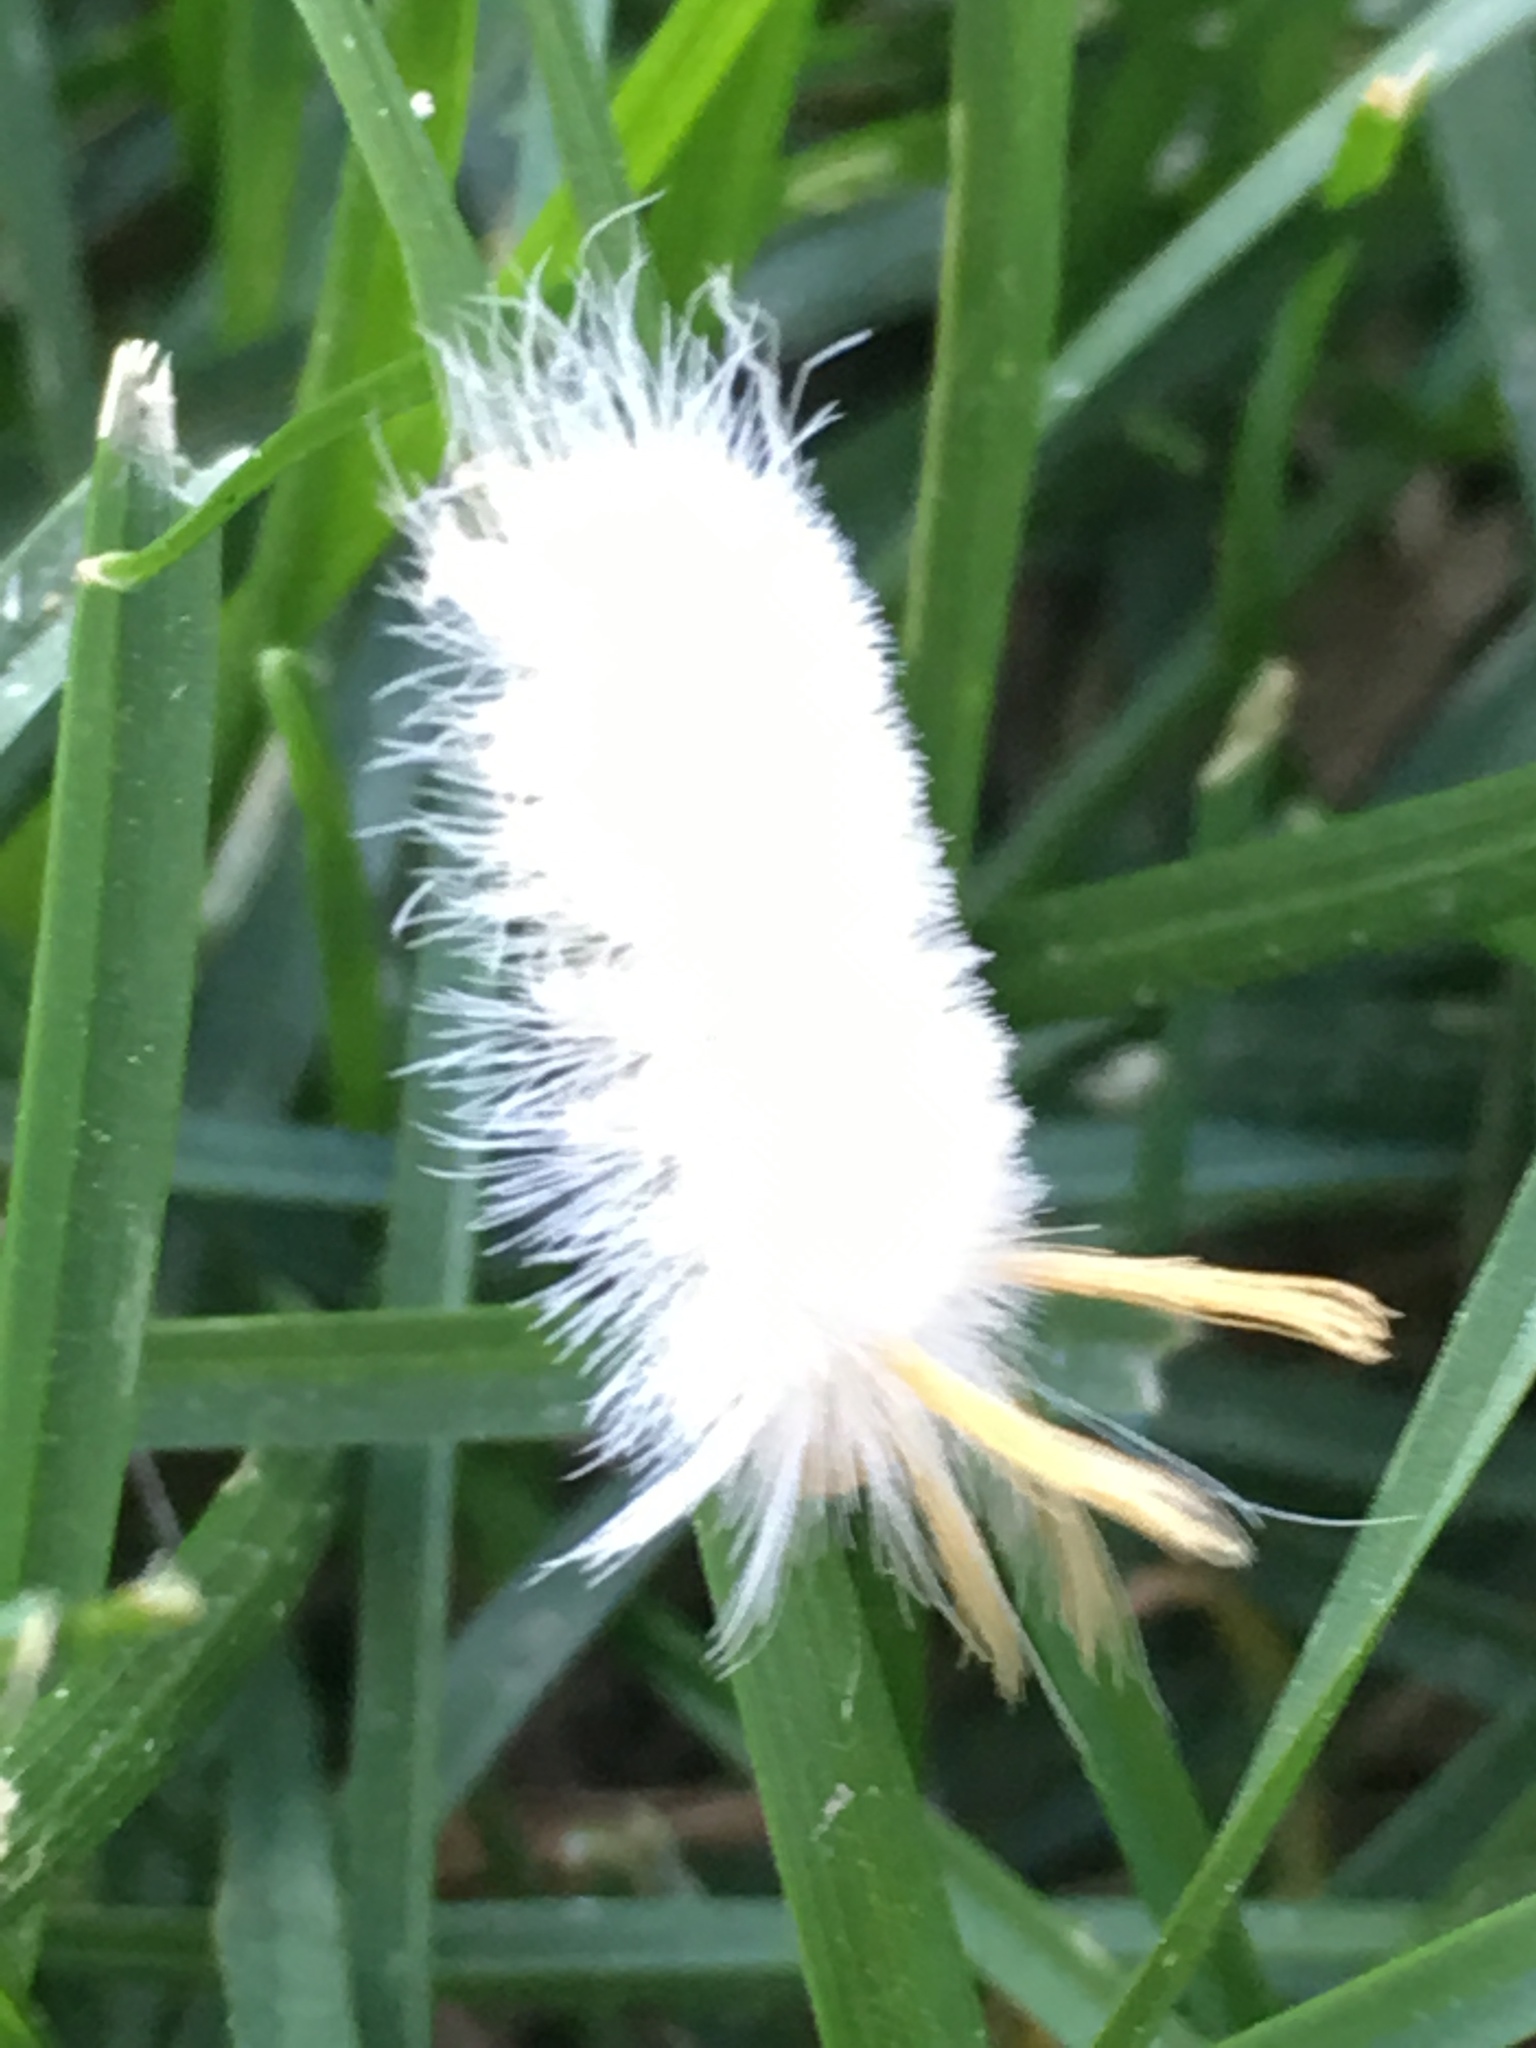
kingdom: Animalia
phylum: Arthropoda
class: Insecta
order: Lepidoptera
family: Erebidae
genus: Halysidota
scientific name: Halysidota harrisii
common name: Sycamore tussock moth
